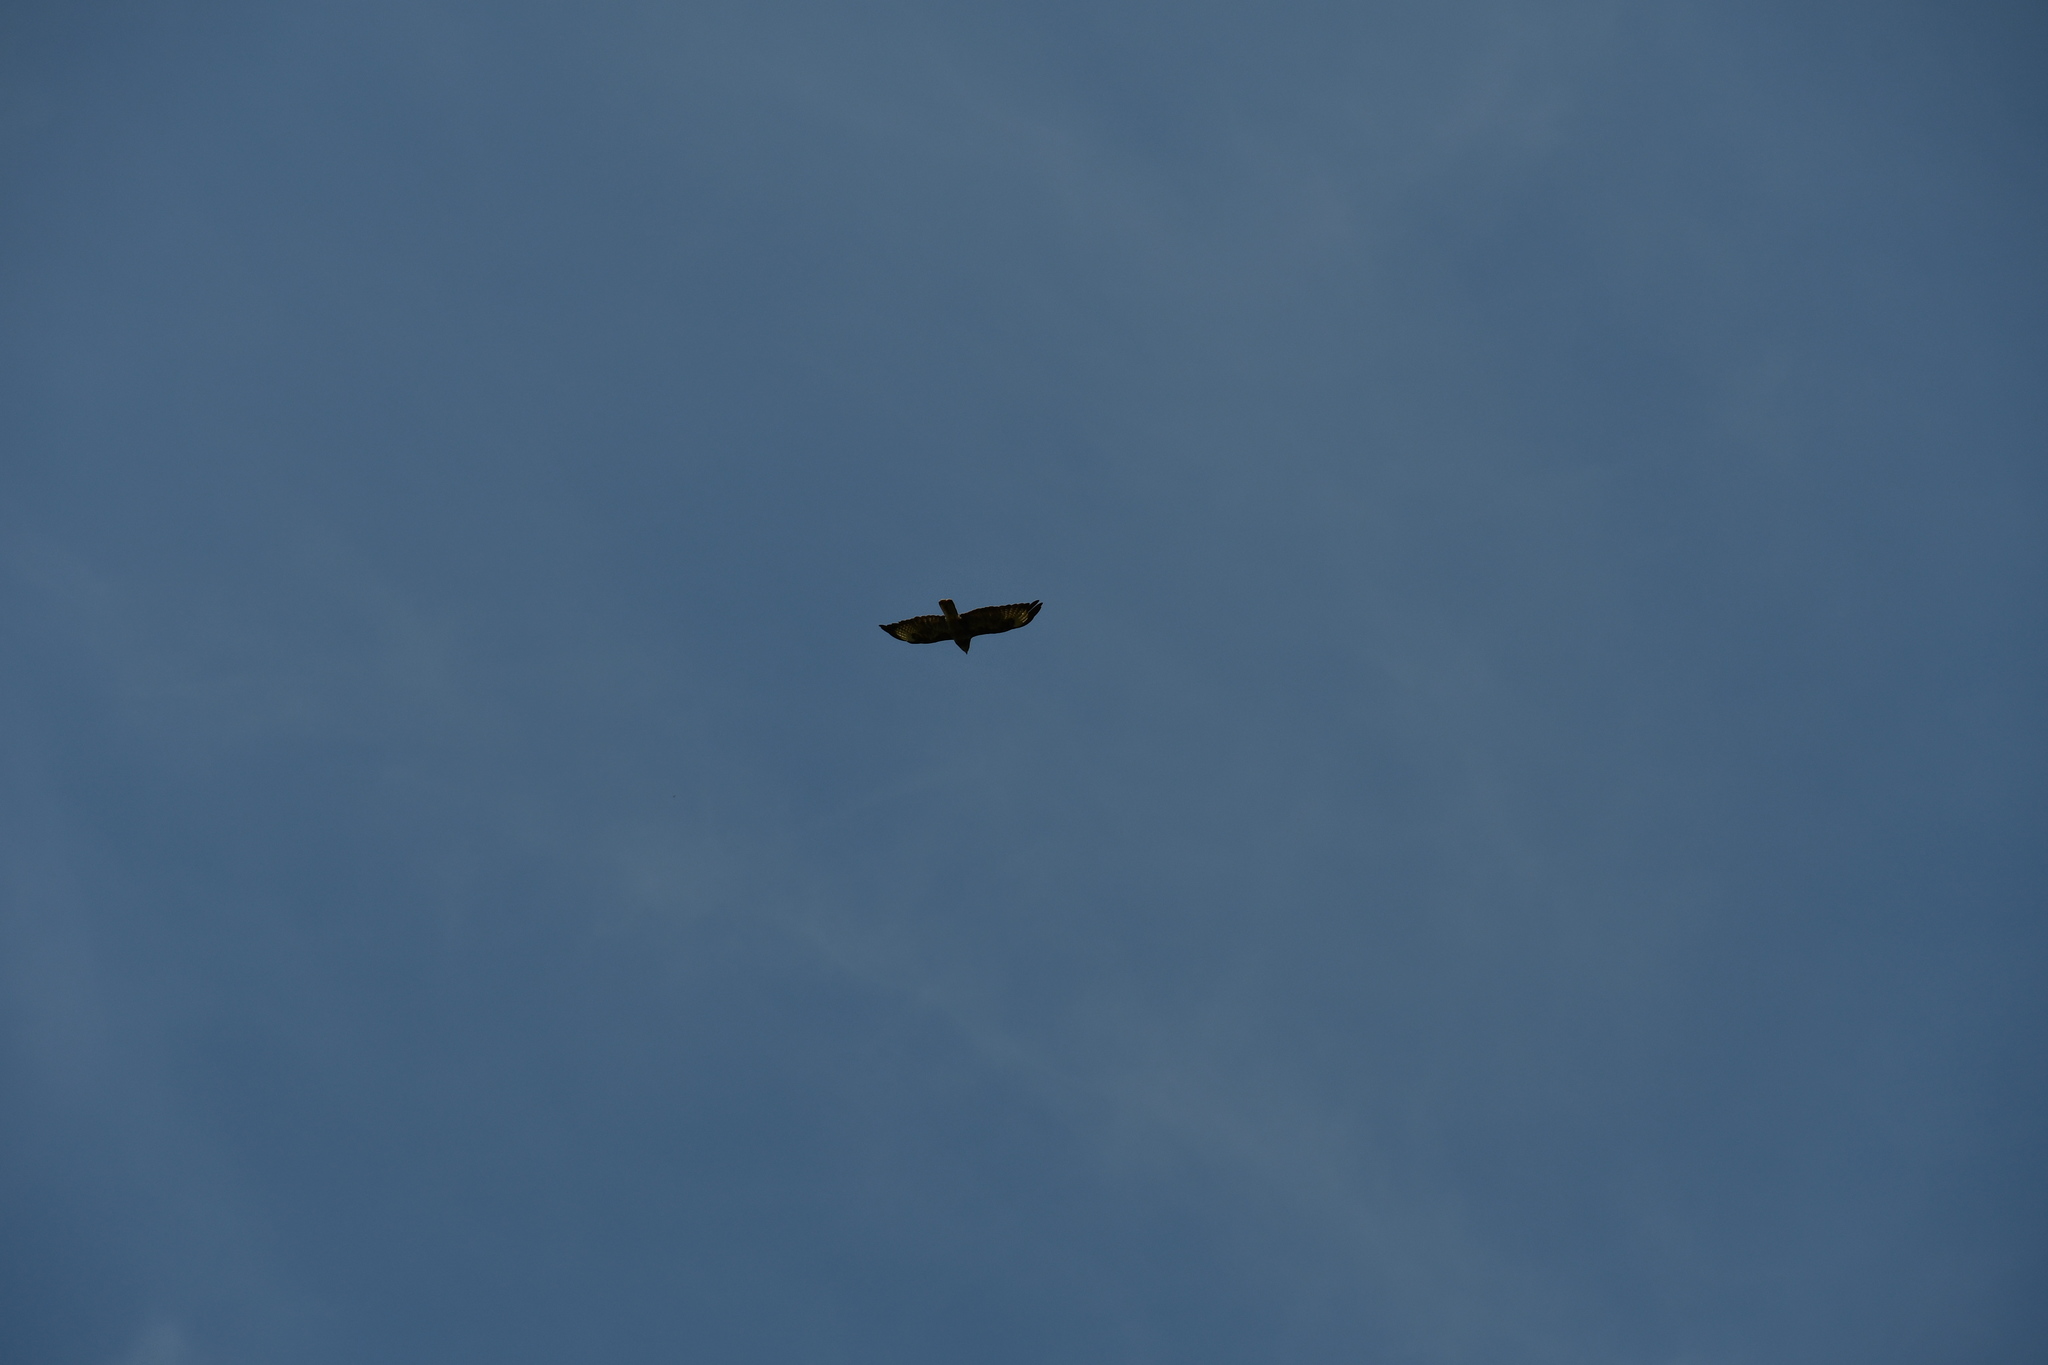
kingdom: Animalia
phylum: Chordata
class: Aves
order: Accipitriformes
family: Accipitridae
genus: Buteo
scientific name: Buteo buteo
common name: Common buzzard
